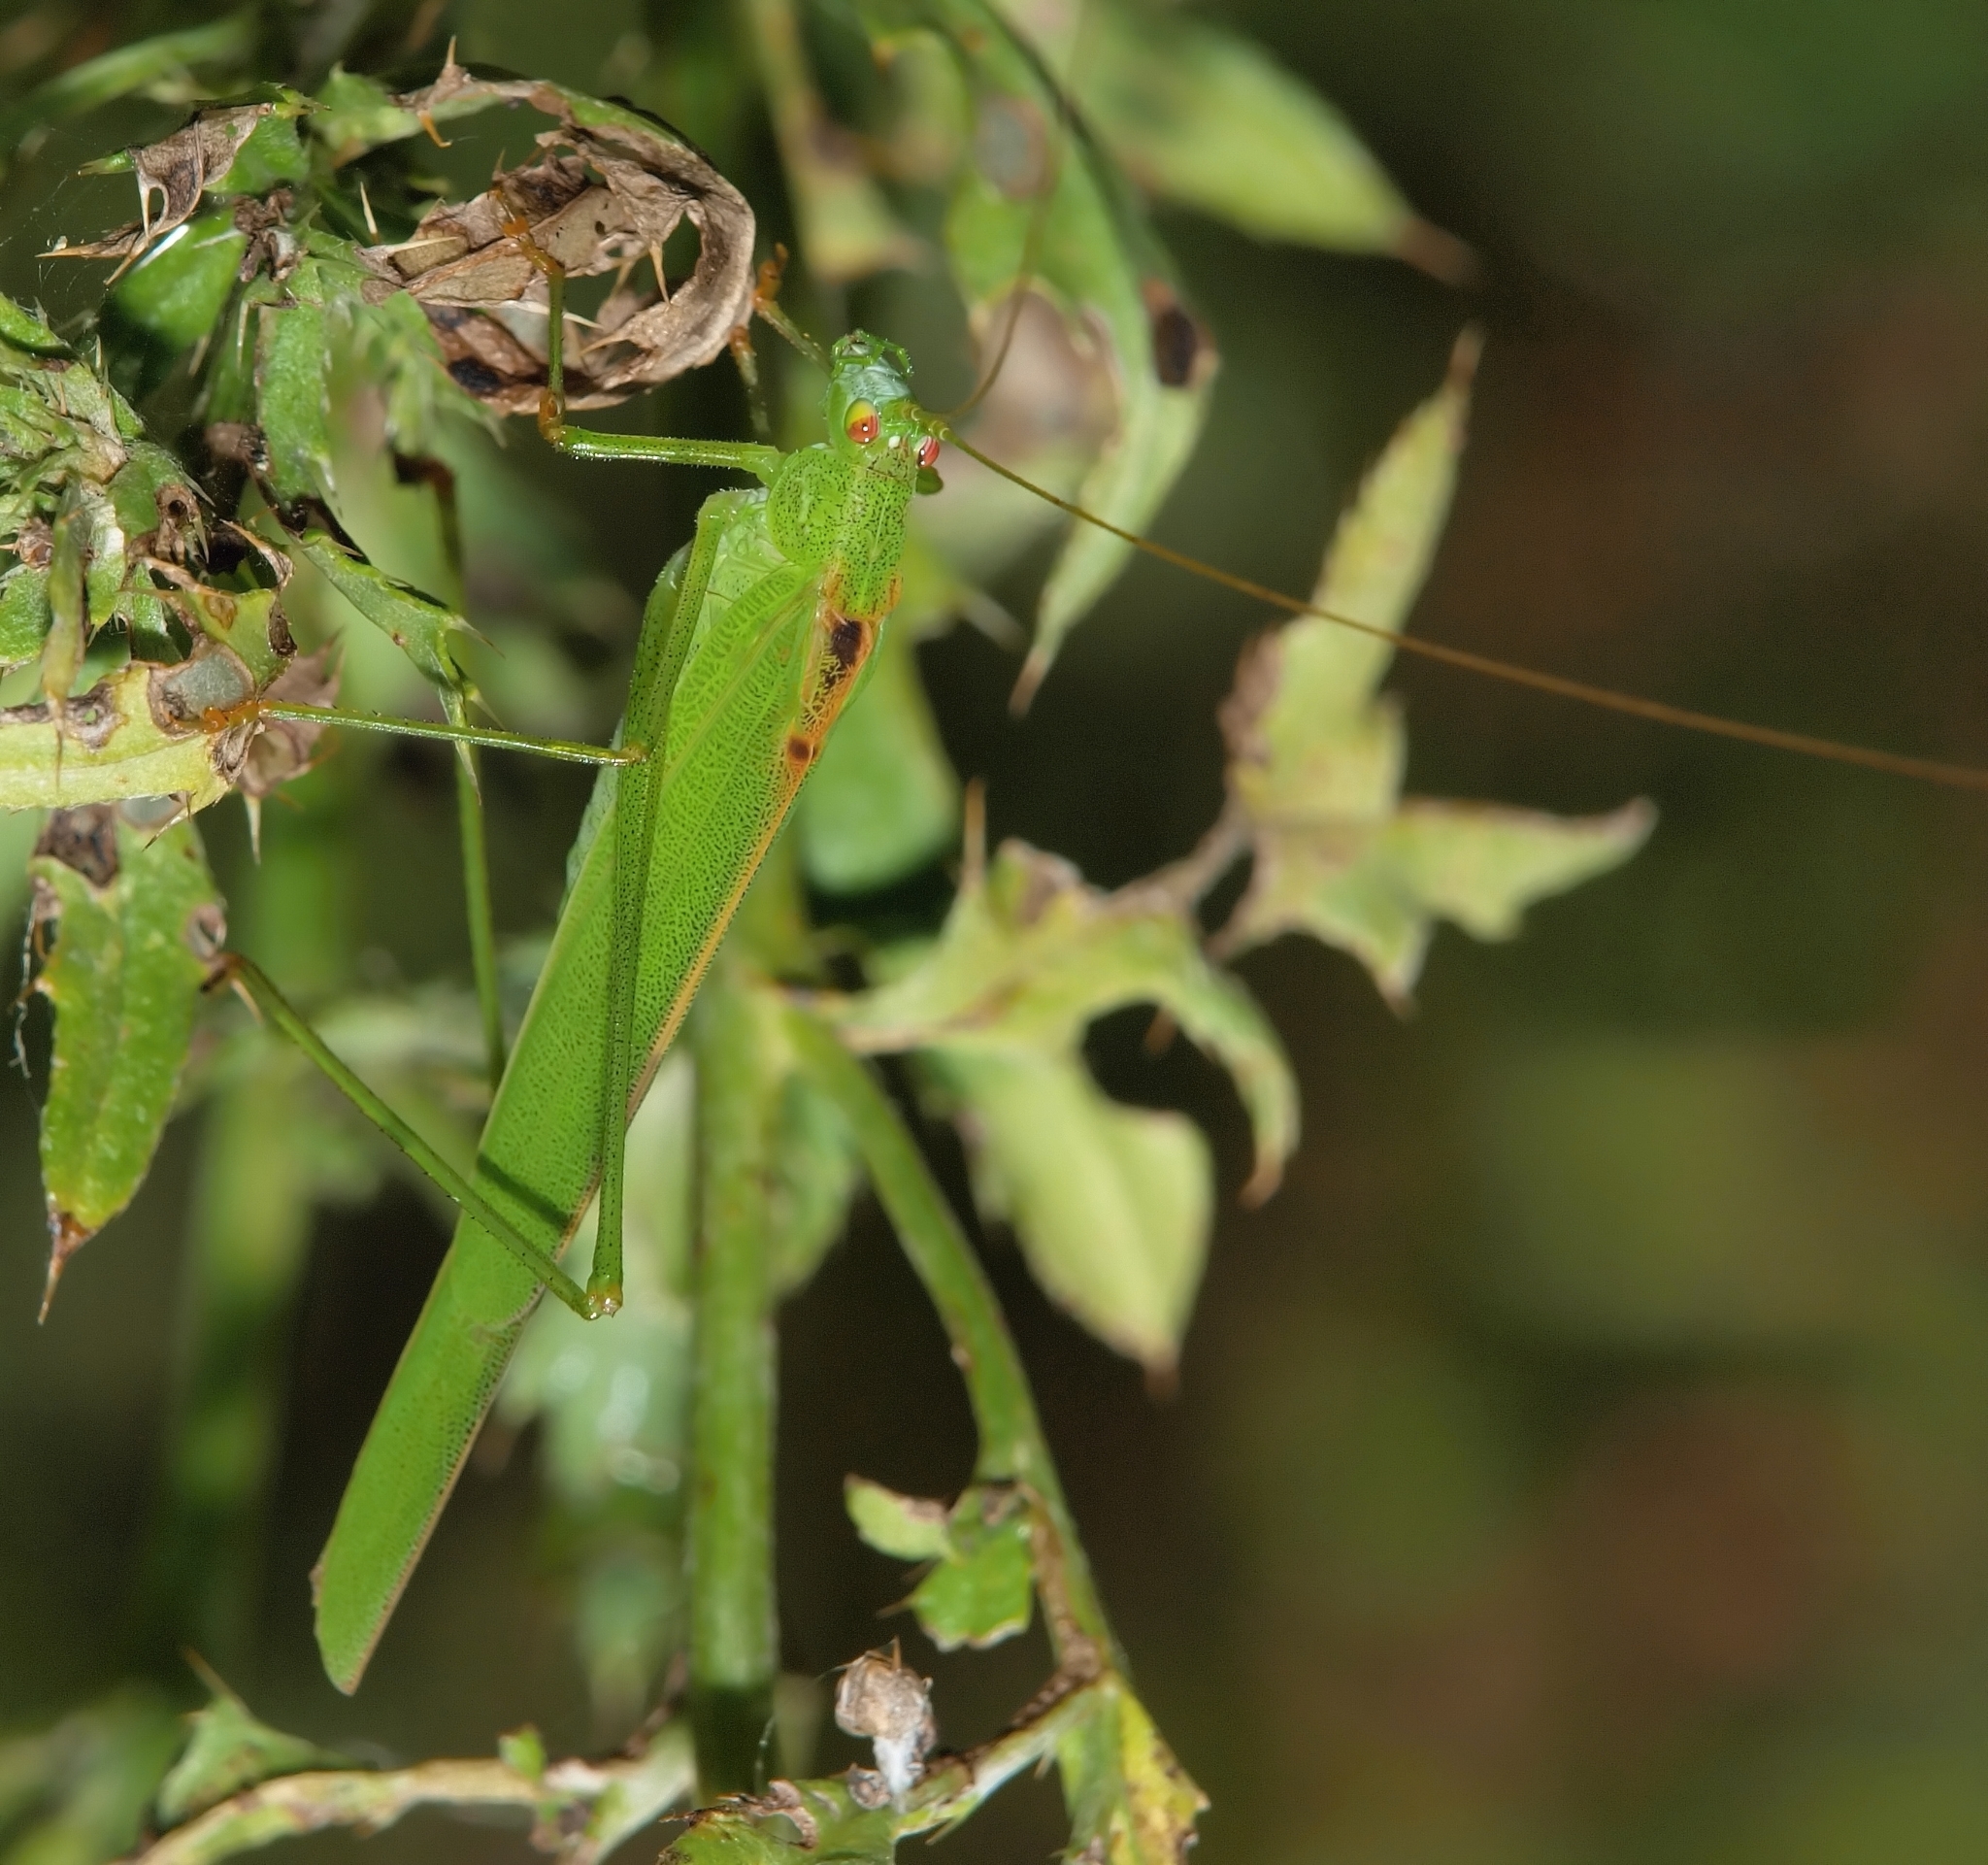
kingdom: Animalia
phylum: Arthropoda
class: Insecta
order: Orthoptera
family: Tettigoniidae
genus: Phaneroptera
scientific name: Phaneroptera falcata
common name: Sickle-bearing bush-cricket
